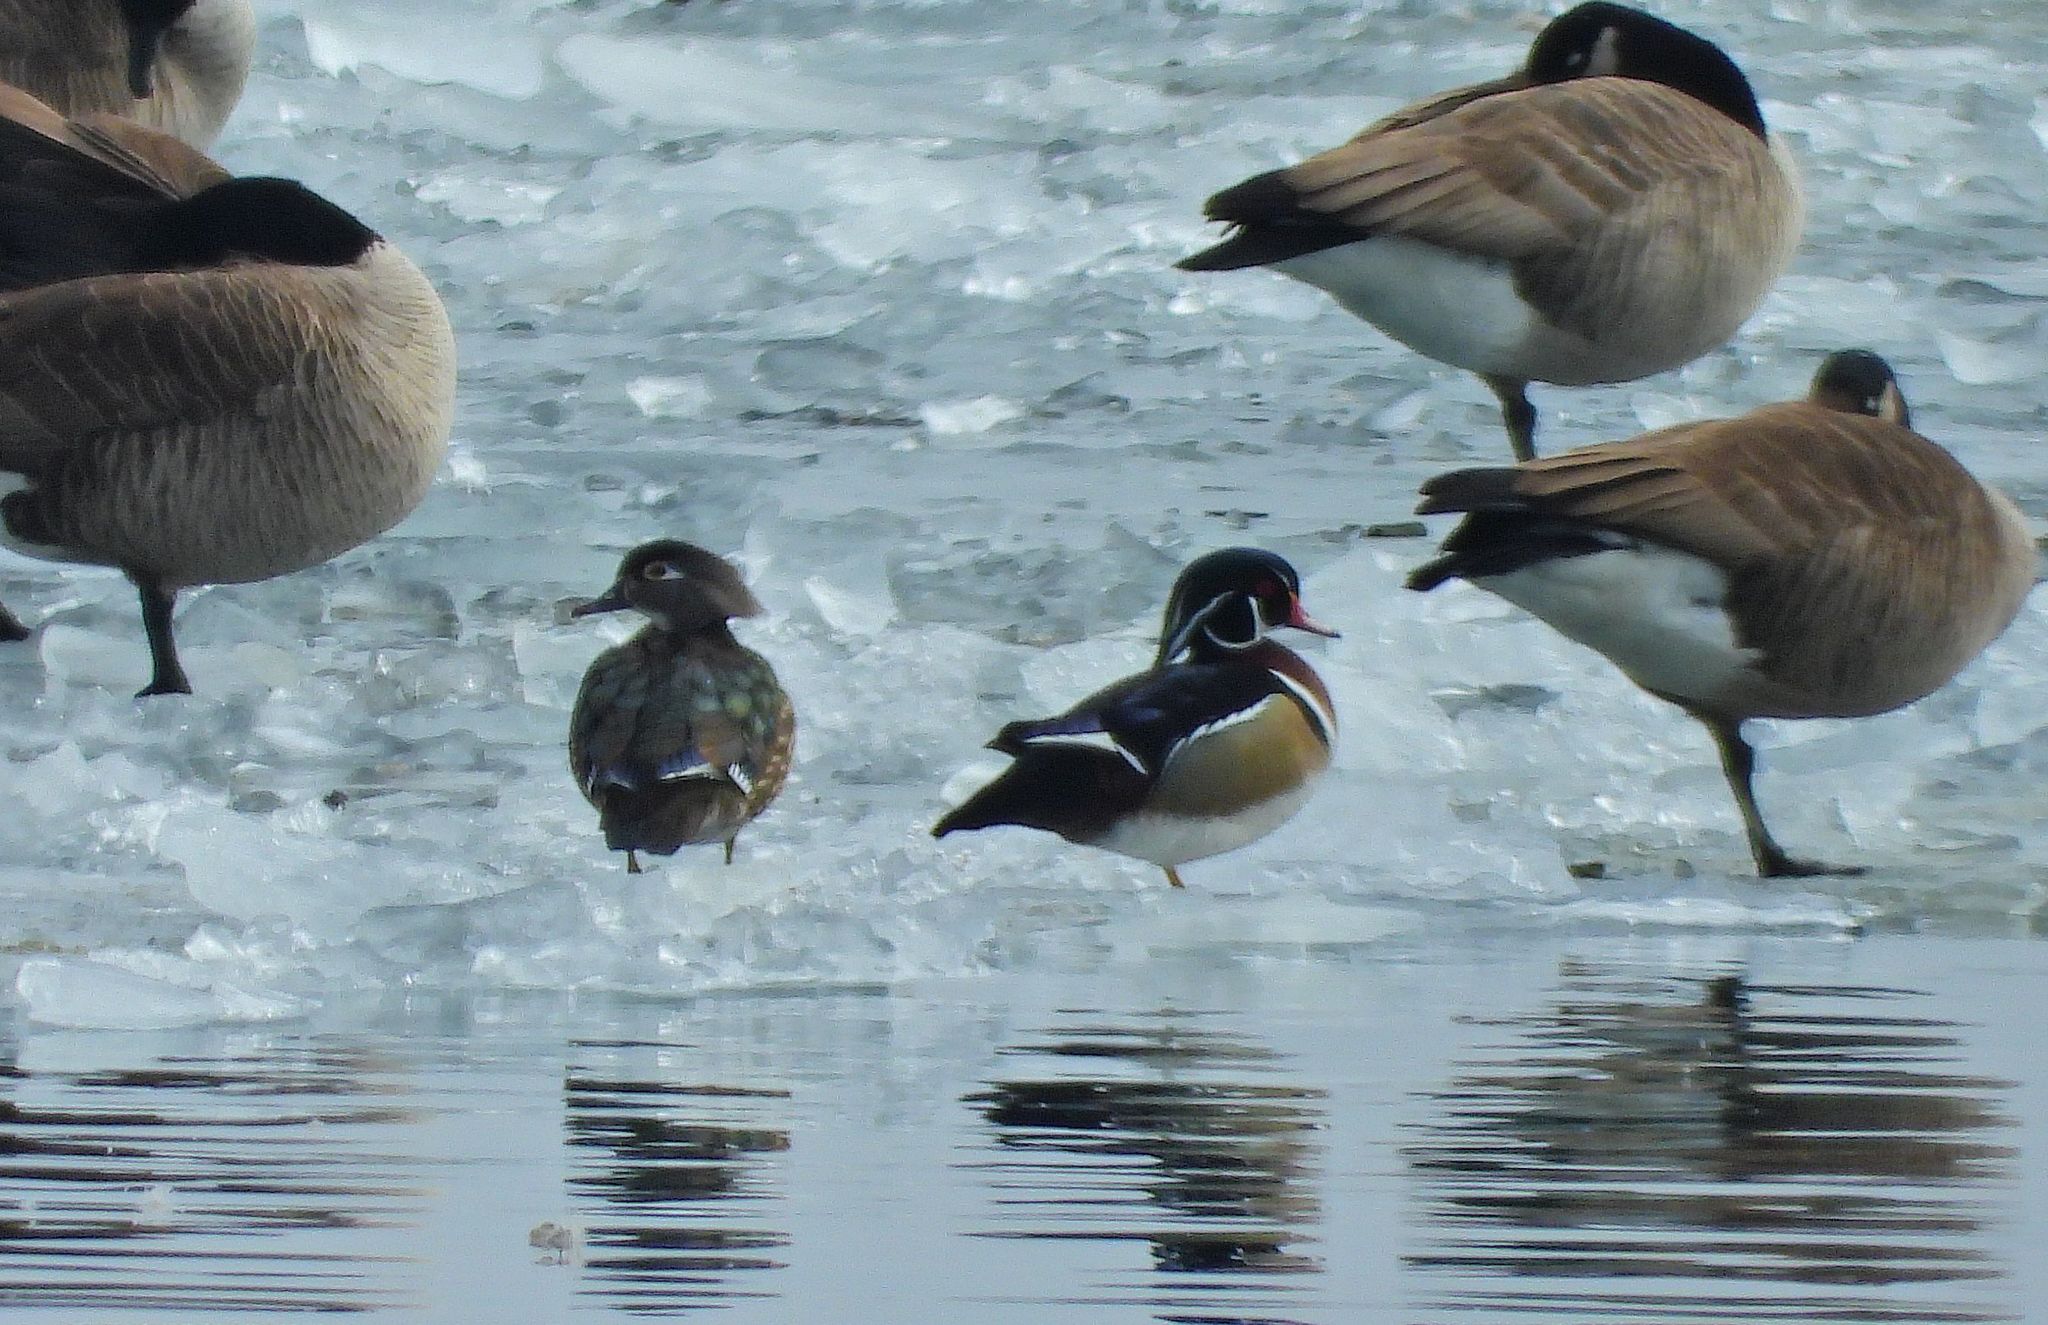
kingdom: Animalia
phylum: Chordata
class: Aves
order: Anseriformes
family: Anatidae
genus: Aix
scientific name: Aix sponsa
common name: Wood duck
